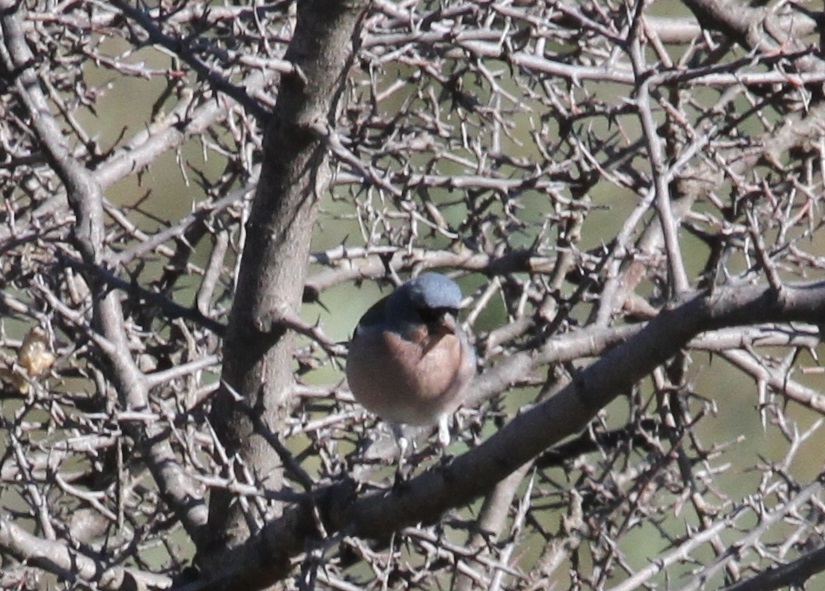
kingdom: Animalia
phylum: Chordata
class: Aves
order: Passeriformes
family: Fringillidae
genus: Fringilla
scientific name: Fringilla spodiogenys
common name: African chaffinch
